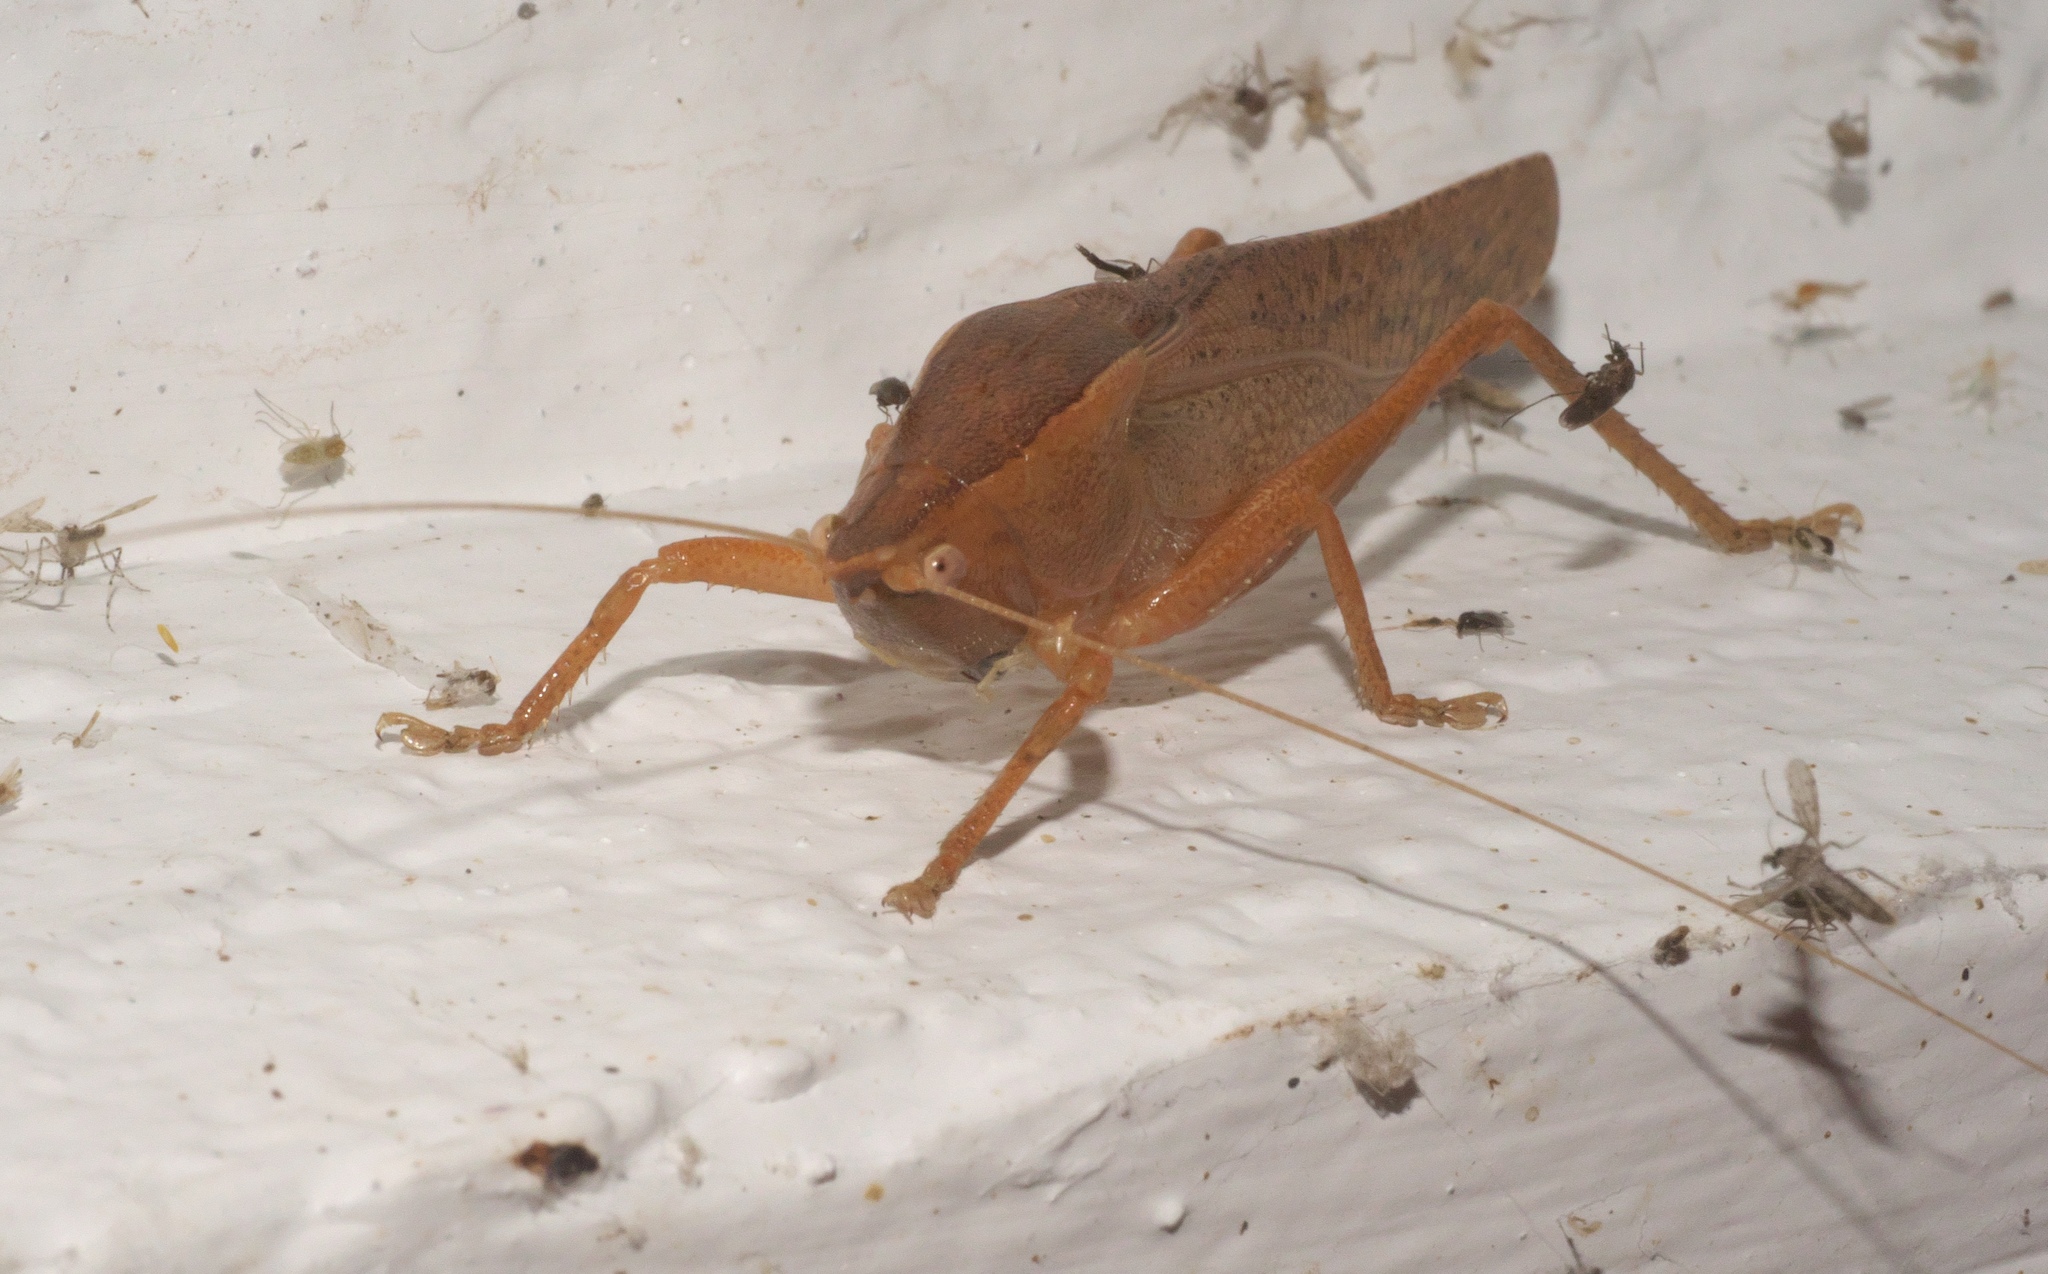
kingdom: Animalia
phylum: Arthropoda
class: Insecta
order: Orthoptera
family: Tettigoniidae
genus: Pyrgocorypha
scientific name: Pyrgocorypha uncinata
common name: Hook-faced conehead
